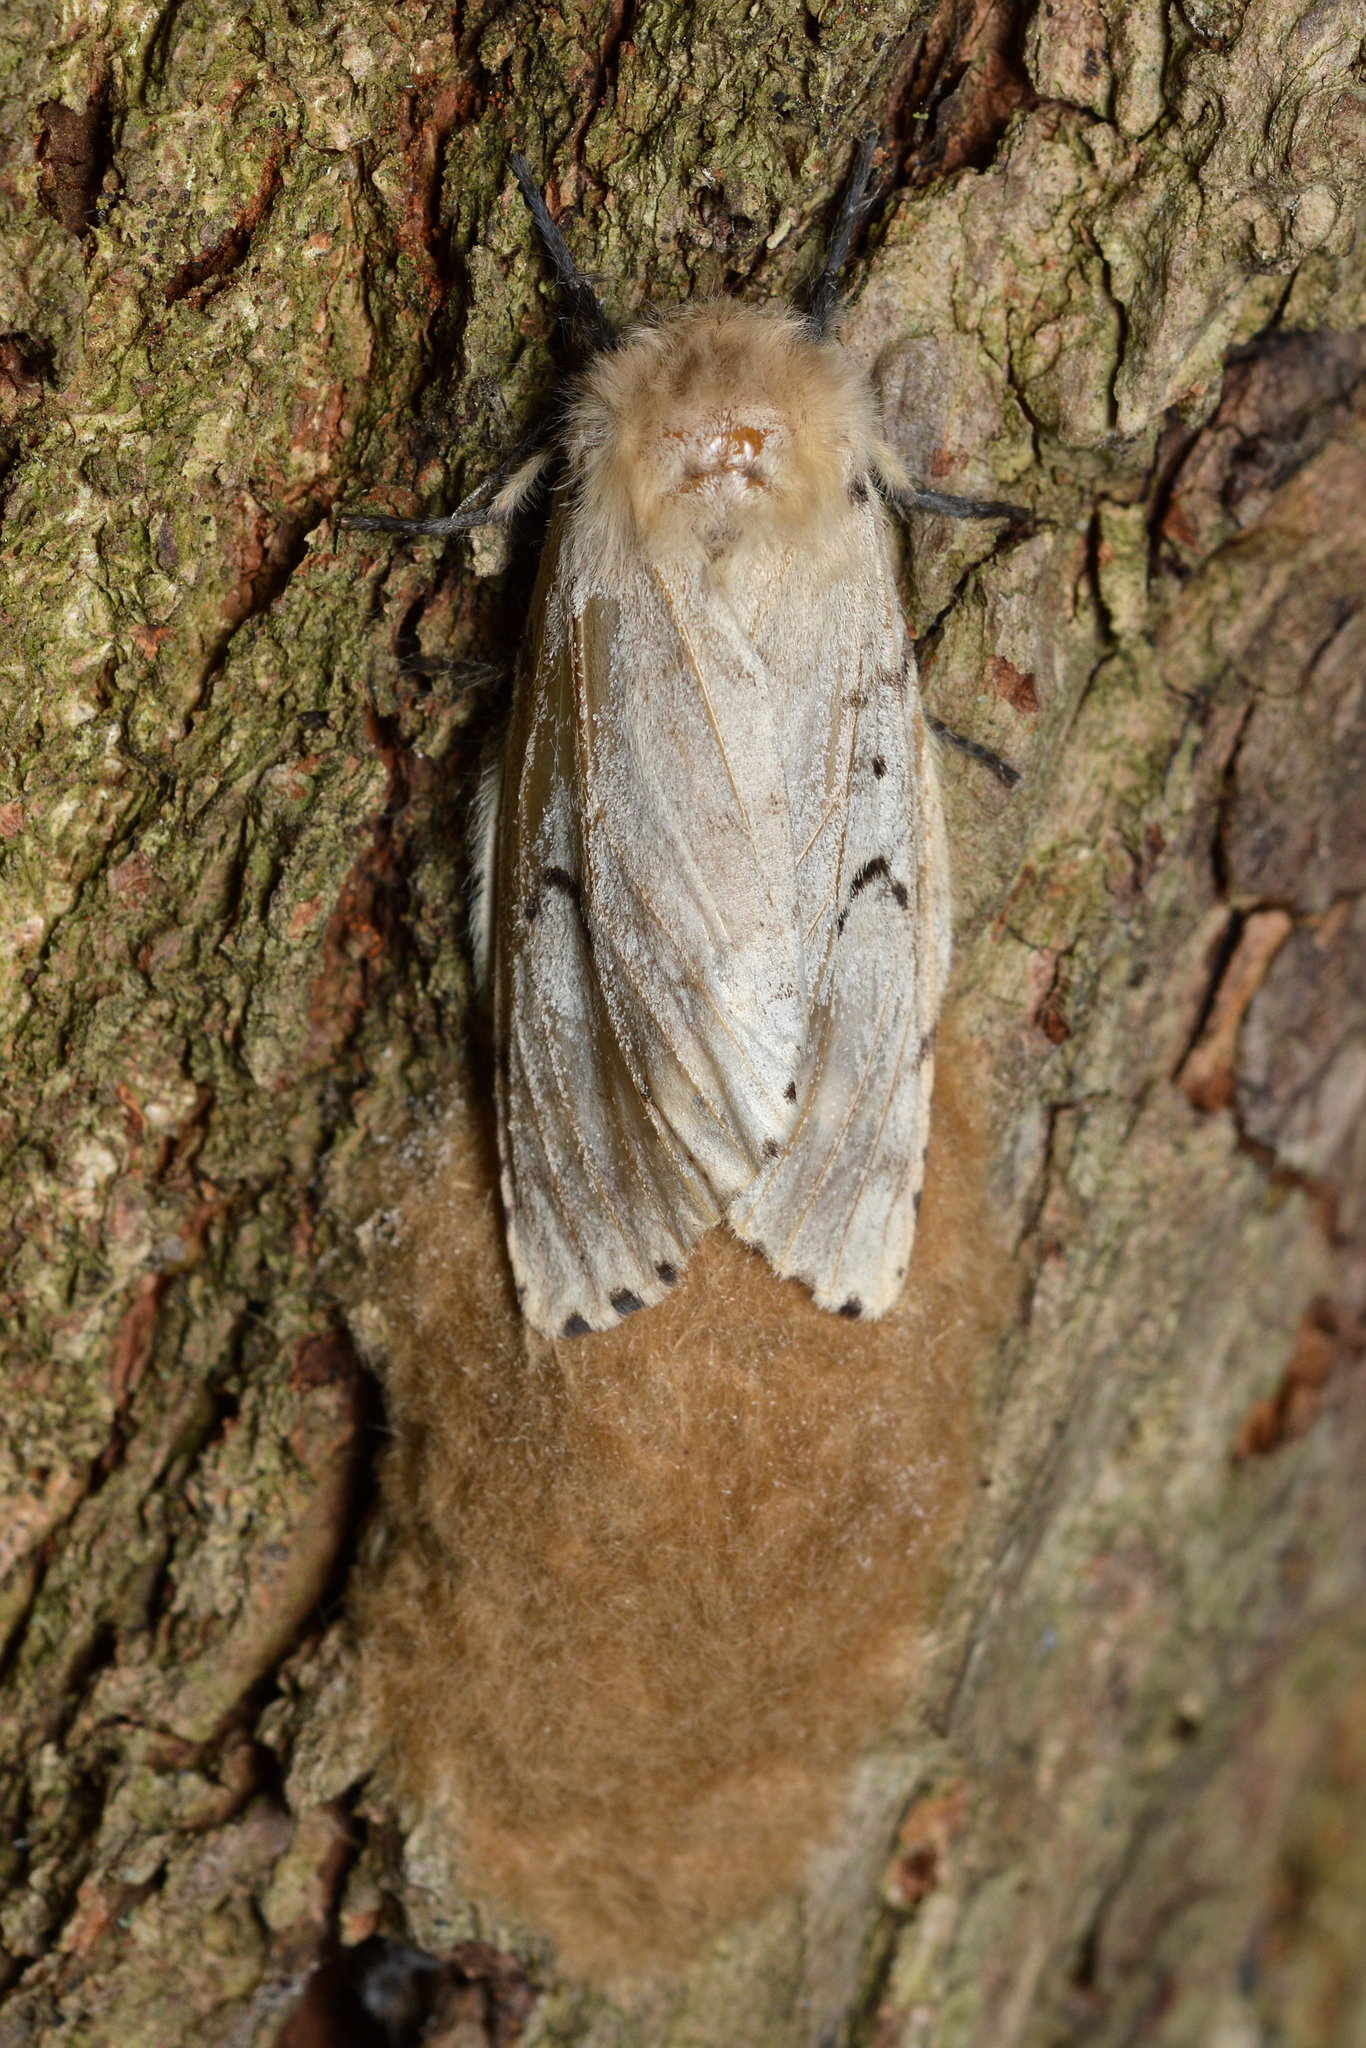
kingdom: Animalia
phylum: Arthropoda
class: Insecta
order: Lepidoptera
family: Erebidae
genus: Lymantria
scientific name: Lymantria dispar
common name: Gypsy moth
